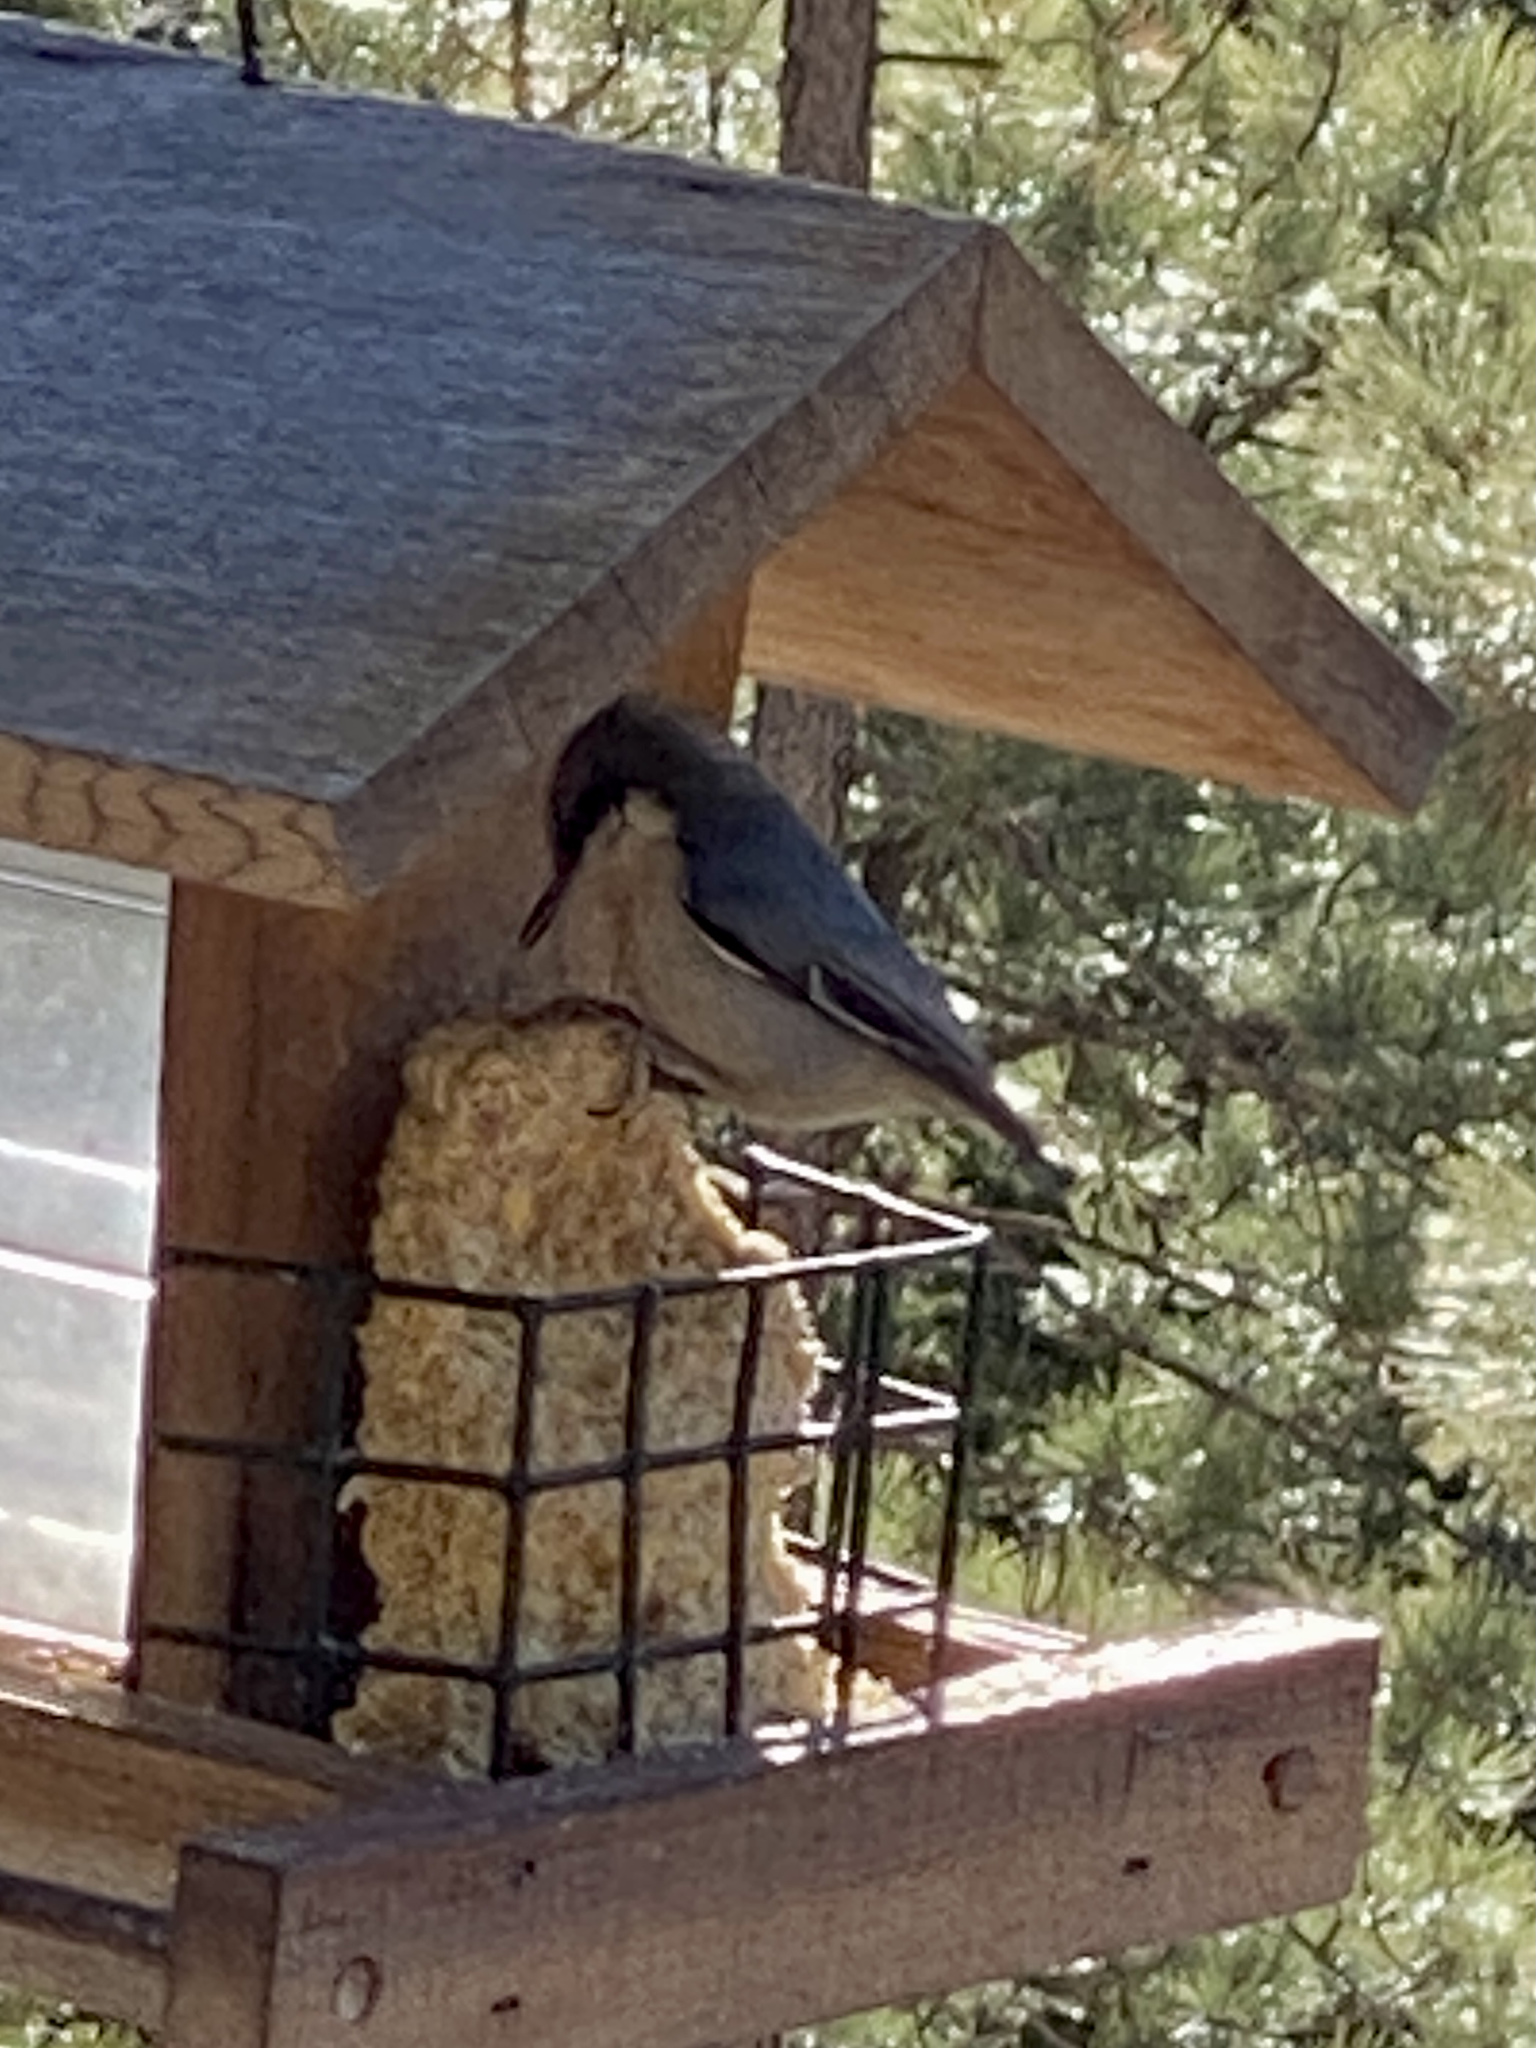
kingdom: Animalia
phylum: Chordata
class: Aves
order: Passeriformes
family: Sittidae
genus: Sitta
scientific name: Sitta pygmaea
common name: Pygmy nuthatch
